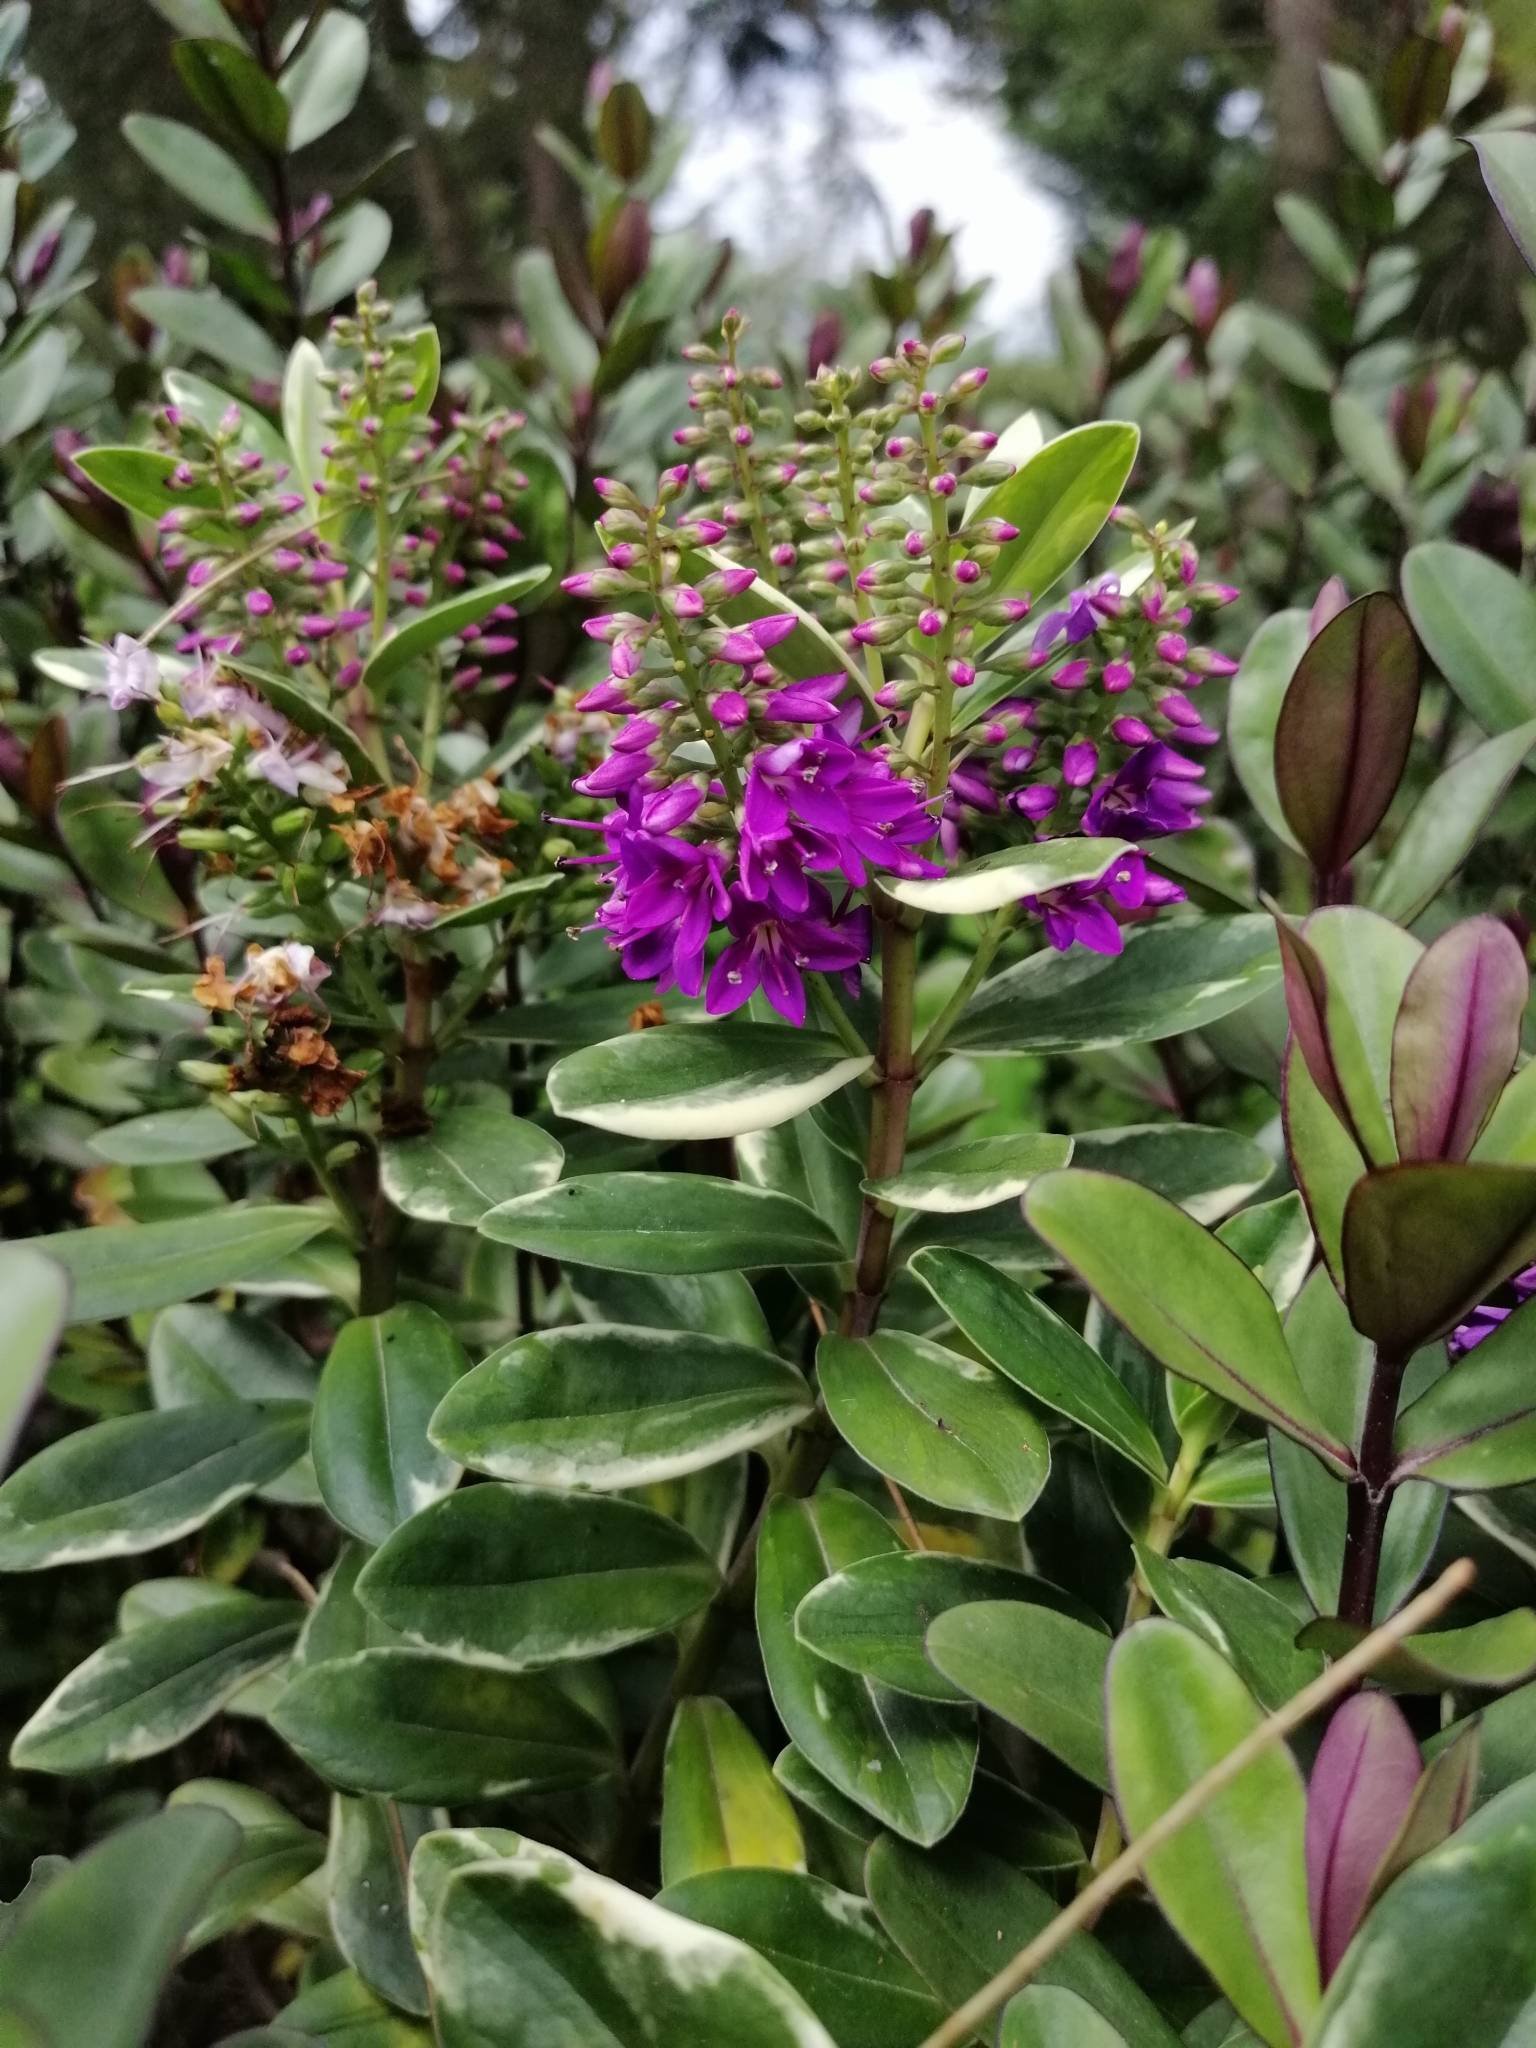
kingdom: Plantae
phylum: Tracheophyta
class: Magnoliopsida
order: Lamiales
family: Plantaginaceae
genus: Veronica
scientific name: Veronica franciscana
